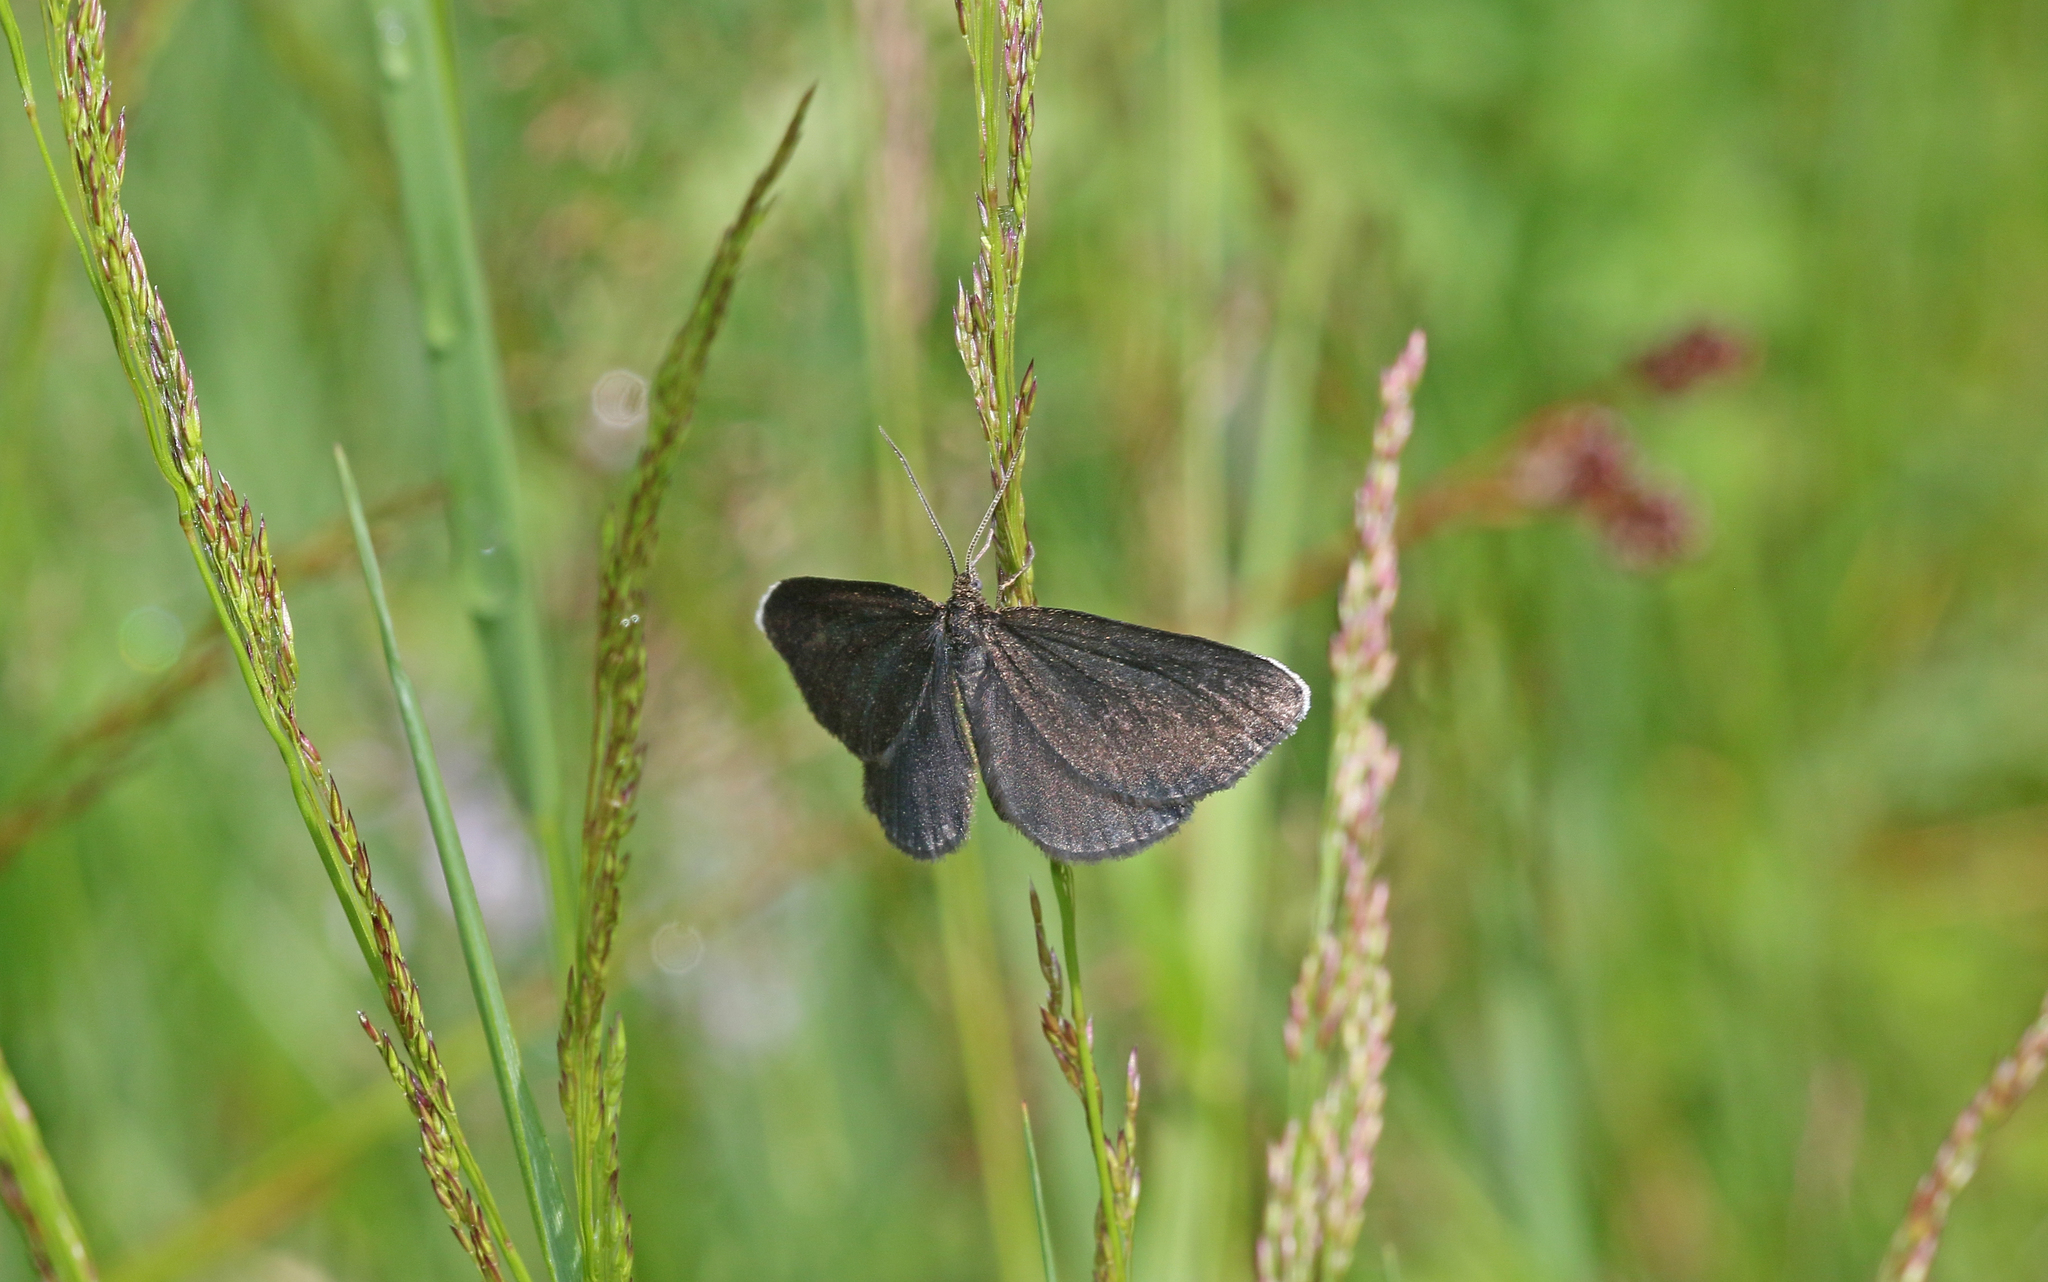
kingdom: Animalia
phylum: Arthropoda
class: Insecta
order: Lepidoptera
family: Geometridae
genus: Odezia
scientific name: Odezia atrata
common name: Chimney sweeper
